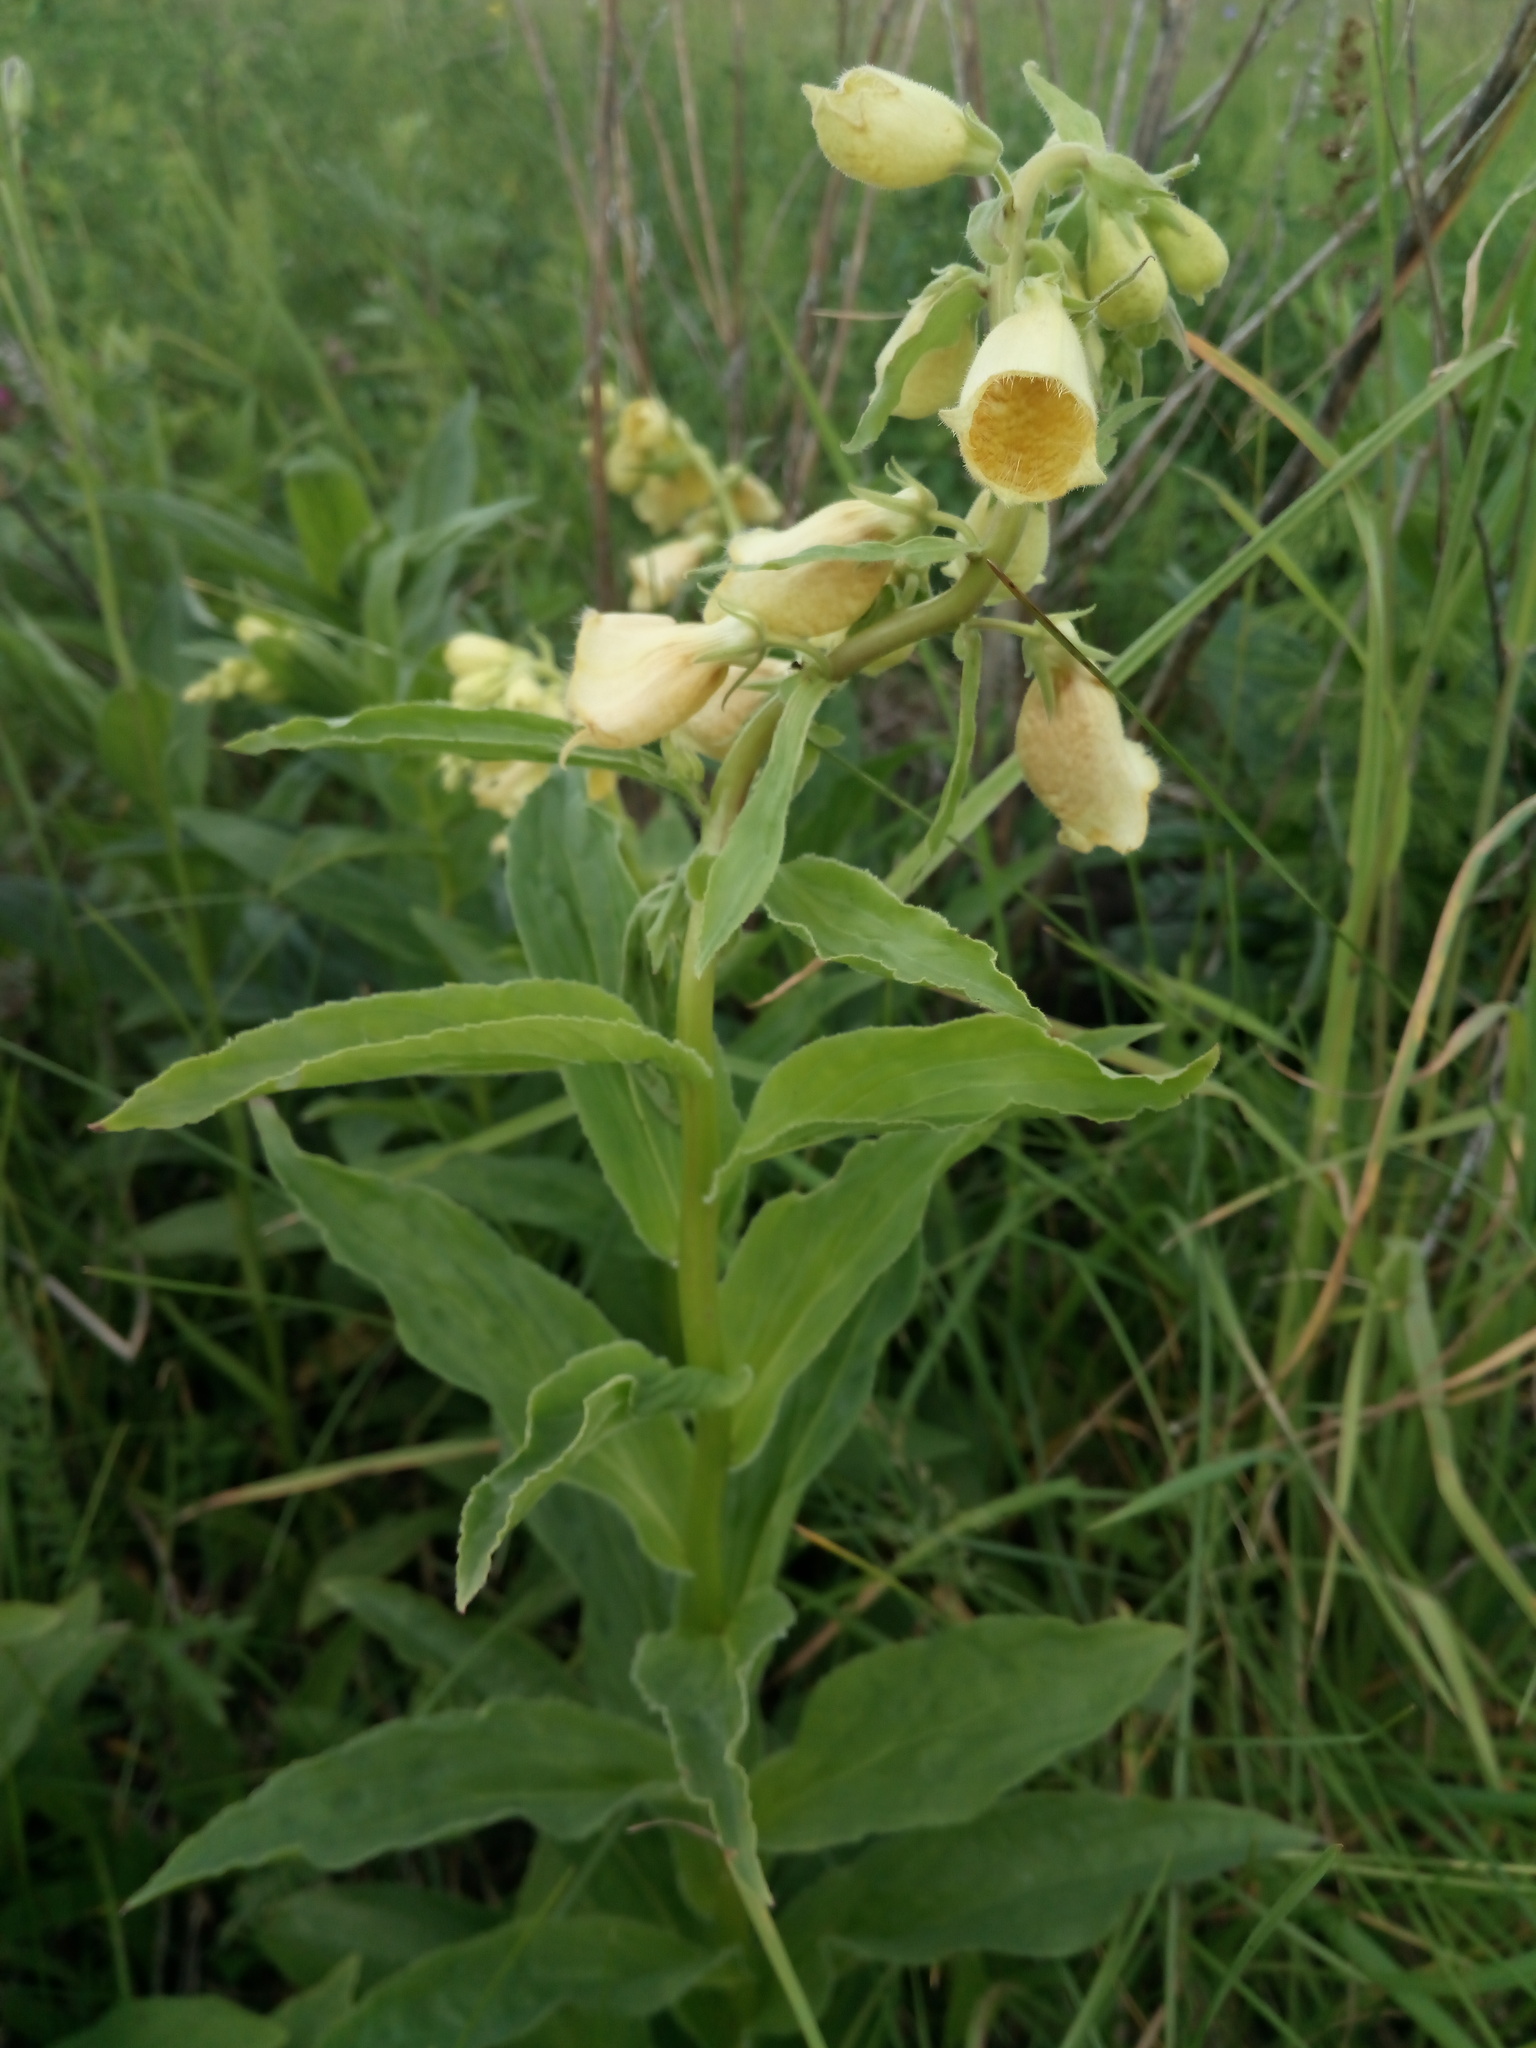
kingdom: Plantae
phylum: Tracheophyta
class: Magnoliopsida
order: Lamiales
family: Plantaginaceae
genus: Digitalis
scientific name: Digitalis grandiflora
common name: Yellow foxglove
